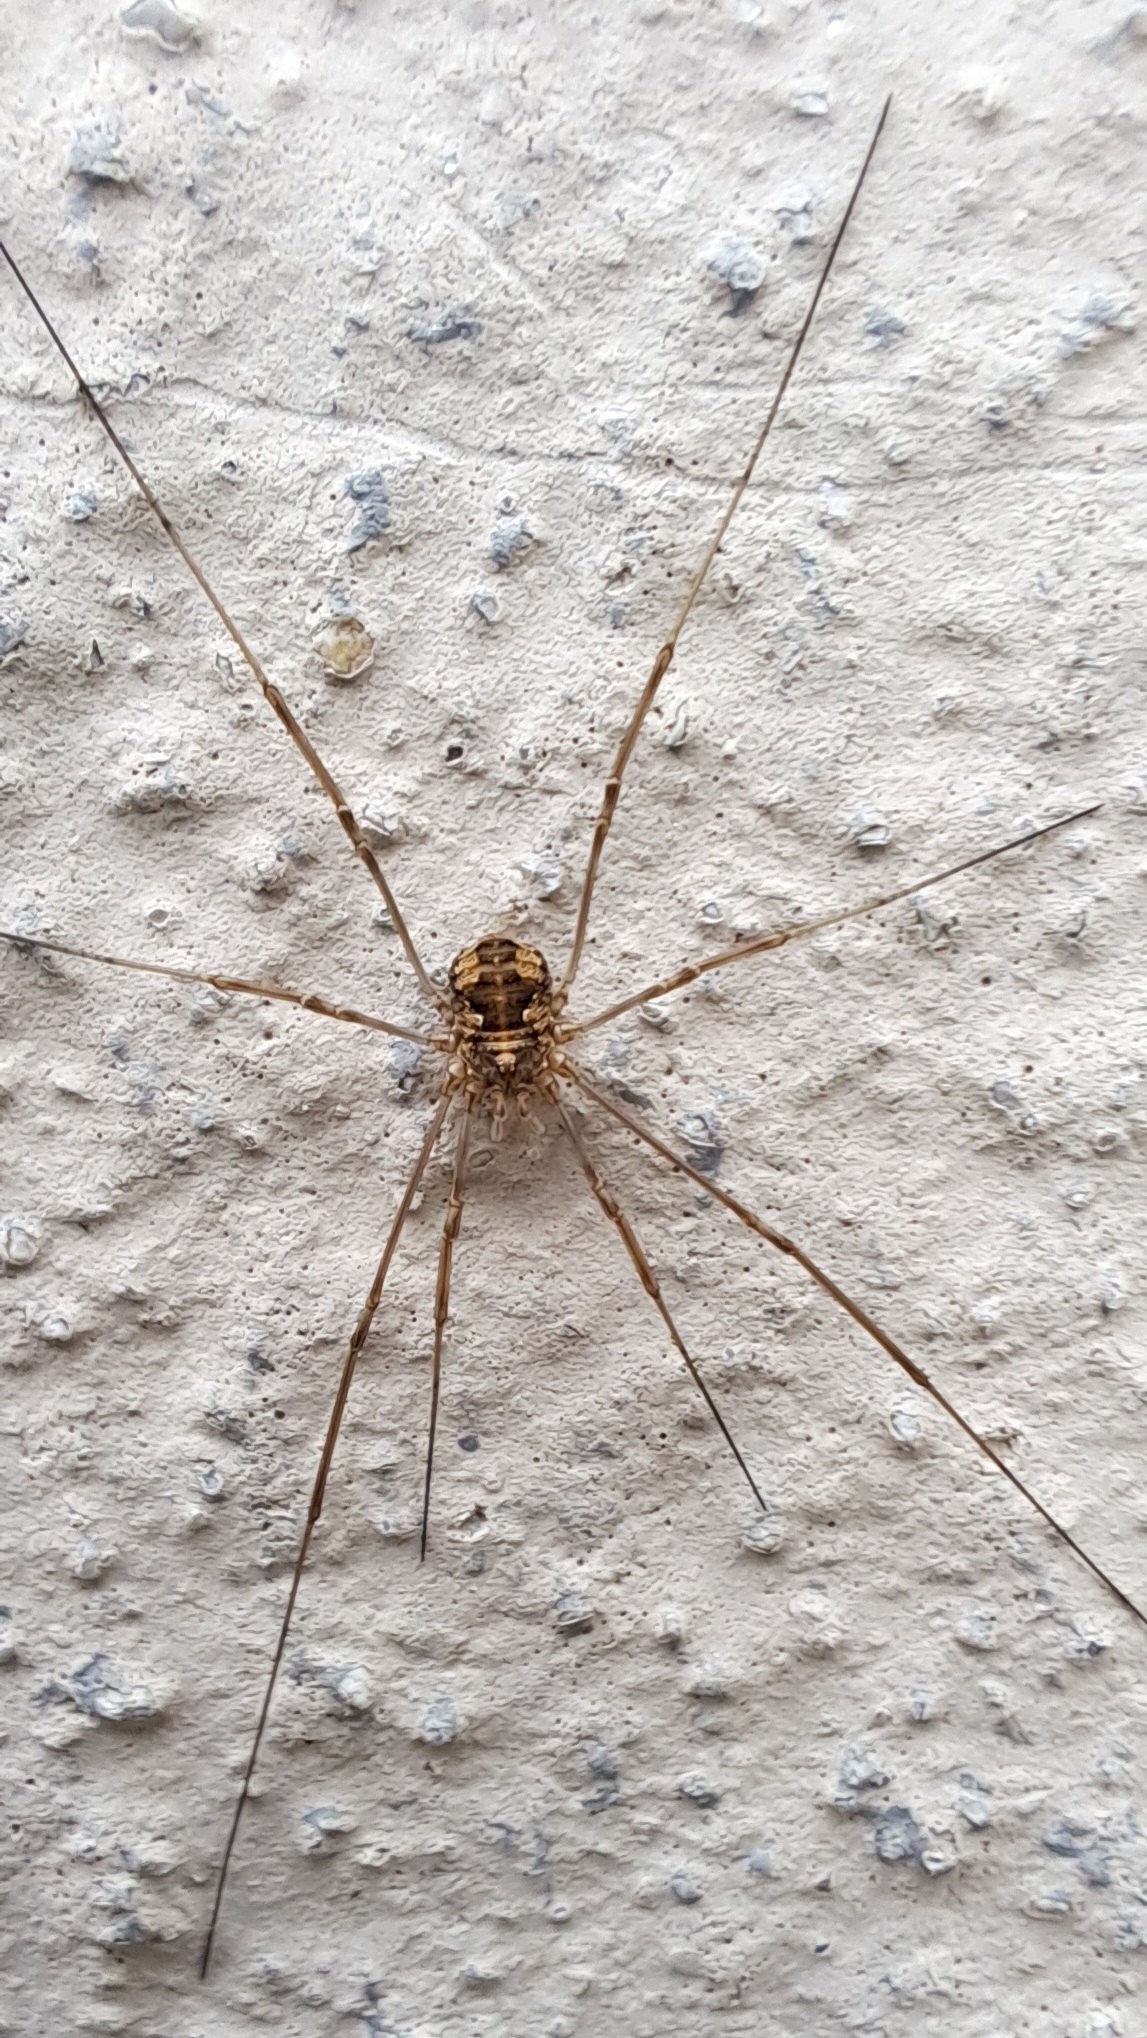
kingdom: Animalia
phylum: Arthropoda
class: Arachnida
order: Opiliones
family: Phalangiidae
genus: Phalangium
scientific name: Phalangium opilio
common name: Daddy longleg
